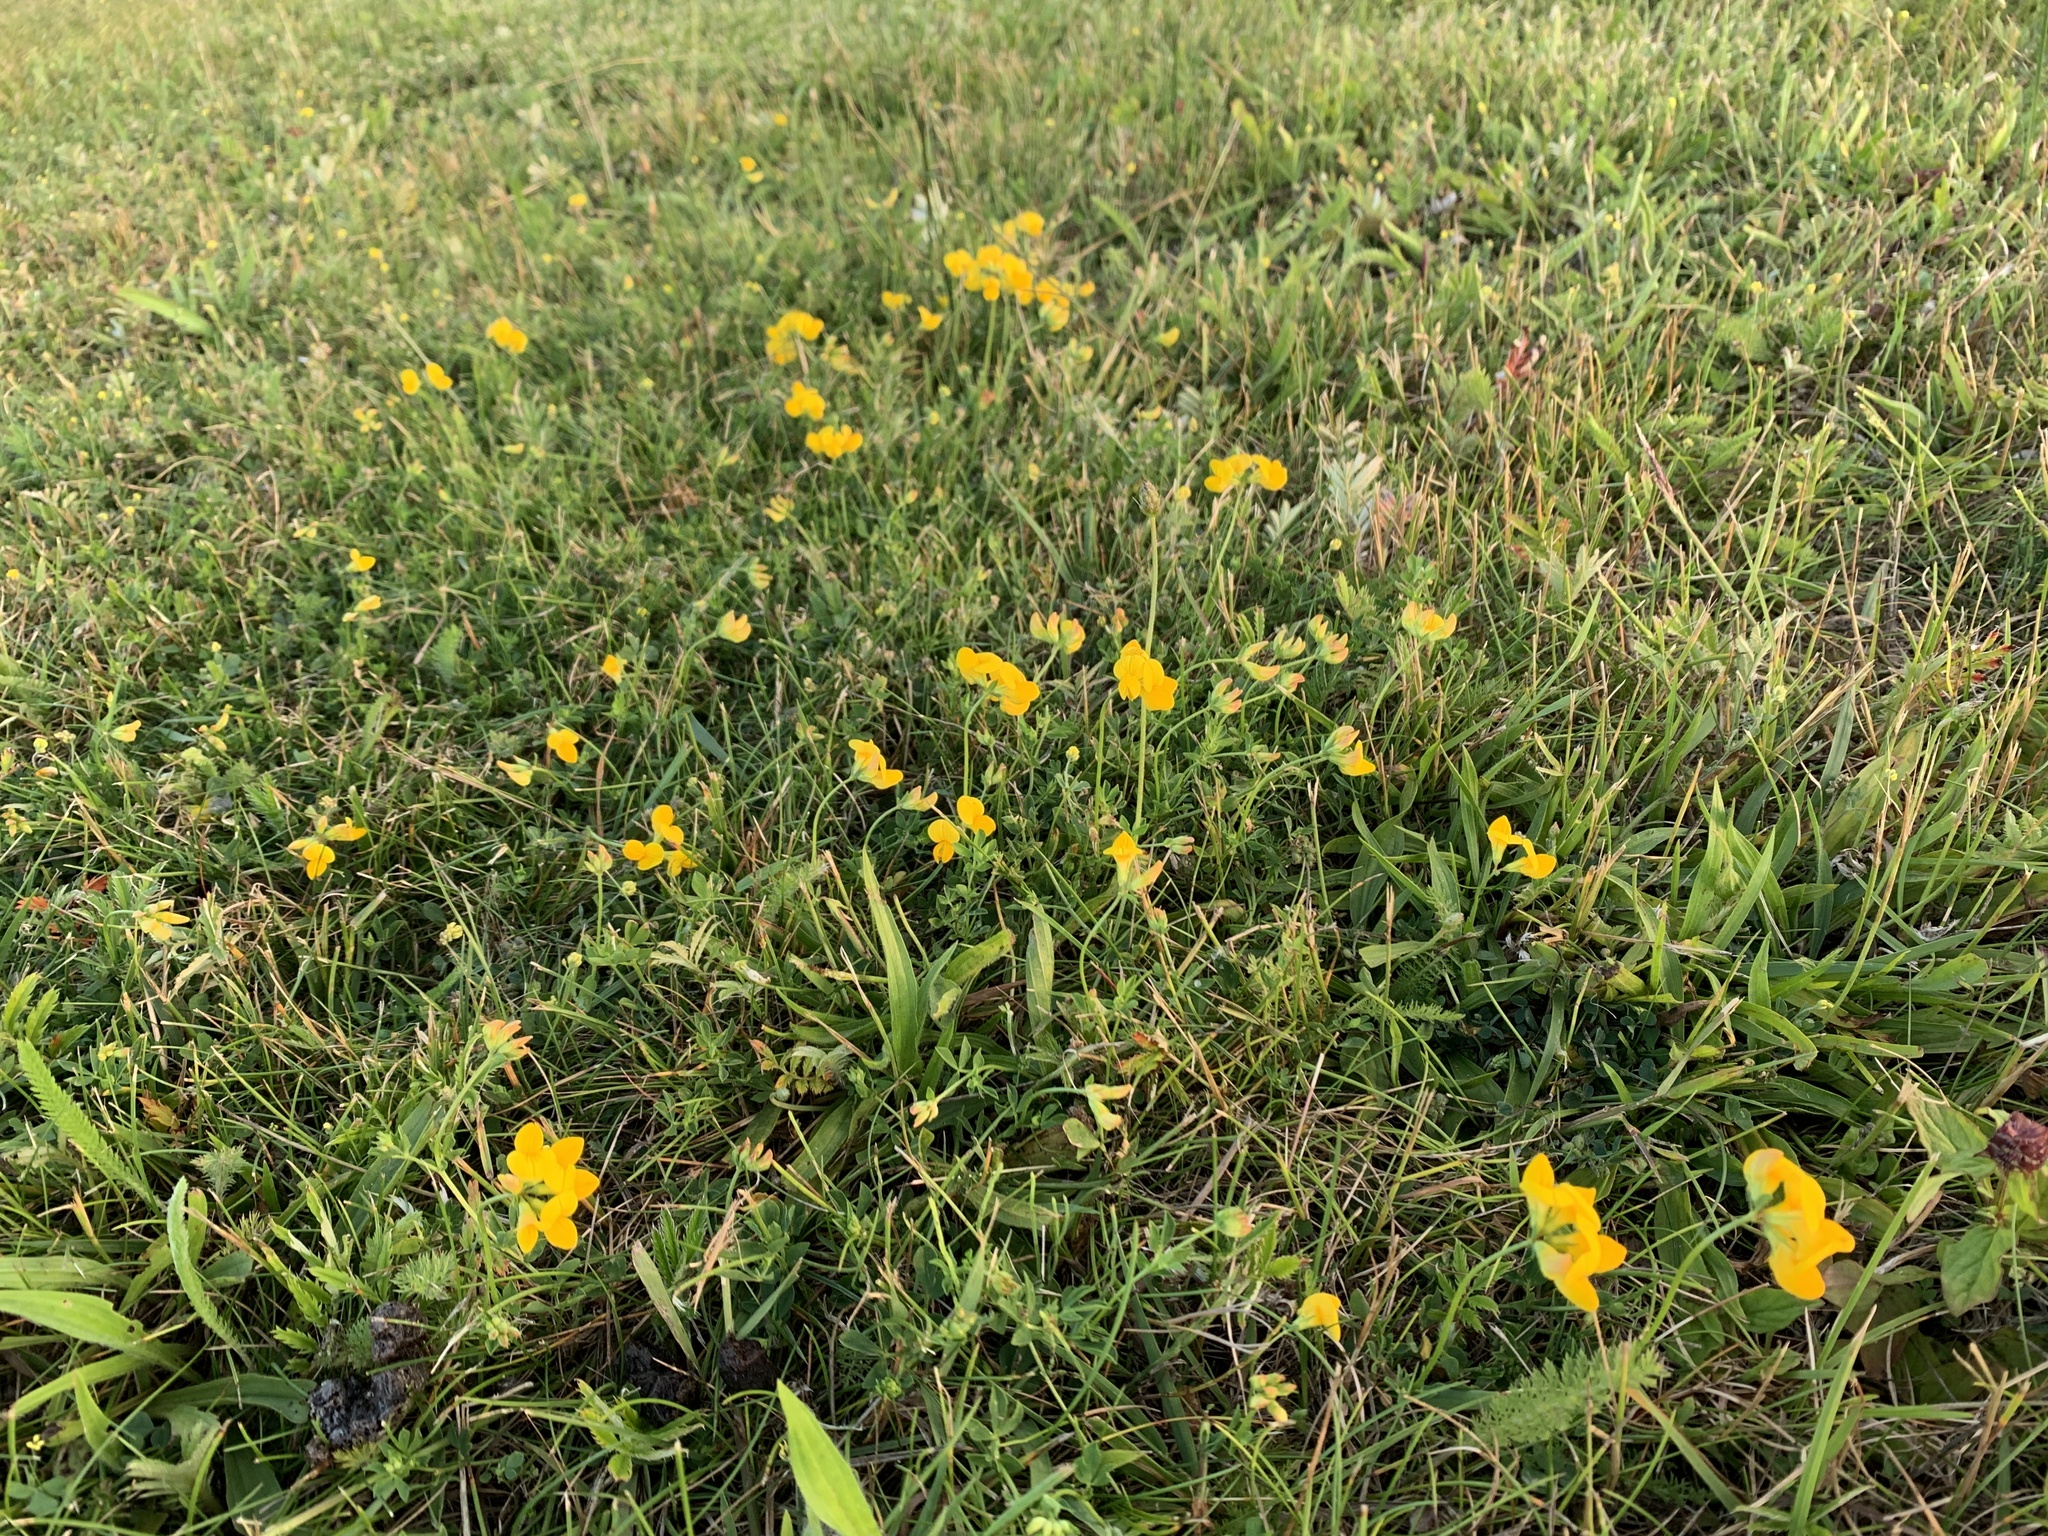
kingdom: Plantae
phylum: Tracheophyta
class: Magnoliopsida
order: Fabales
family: Fabaceae
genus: Lotus
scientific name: Lotus corniculatus
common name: Common bird's-foot-trefoil
